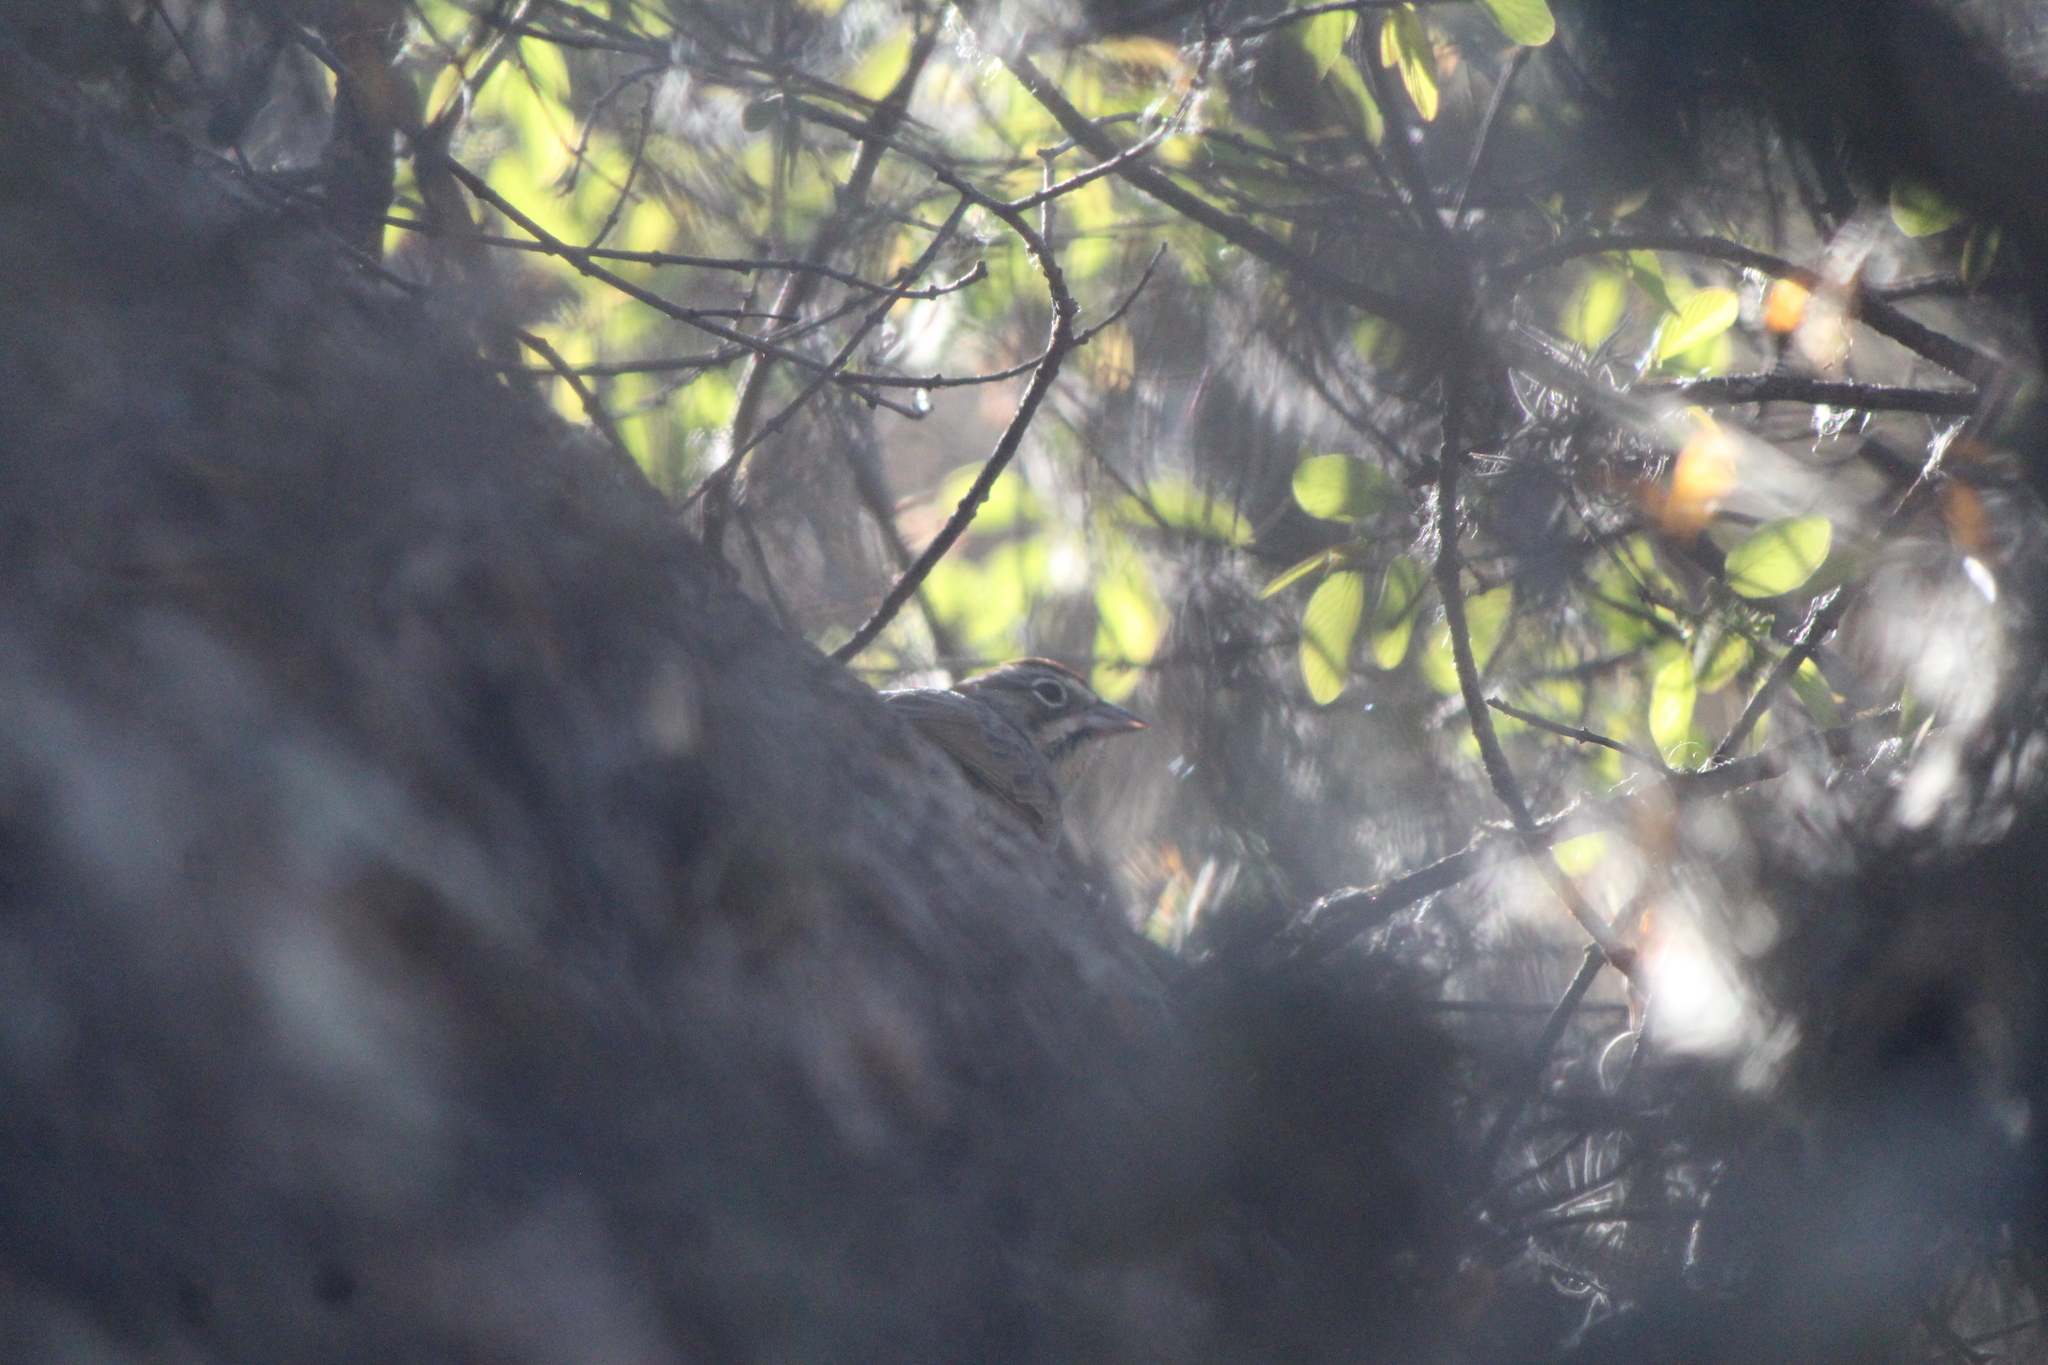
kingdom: Animalia
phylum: Chordata
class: Aves
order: Passeriformes
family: Passerellidae
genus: Aimophila
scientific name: Aimophila ruficeps
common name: Rufous-crowned sparrow
